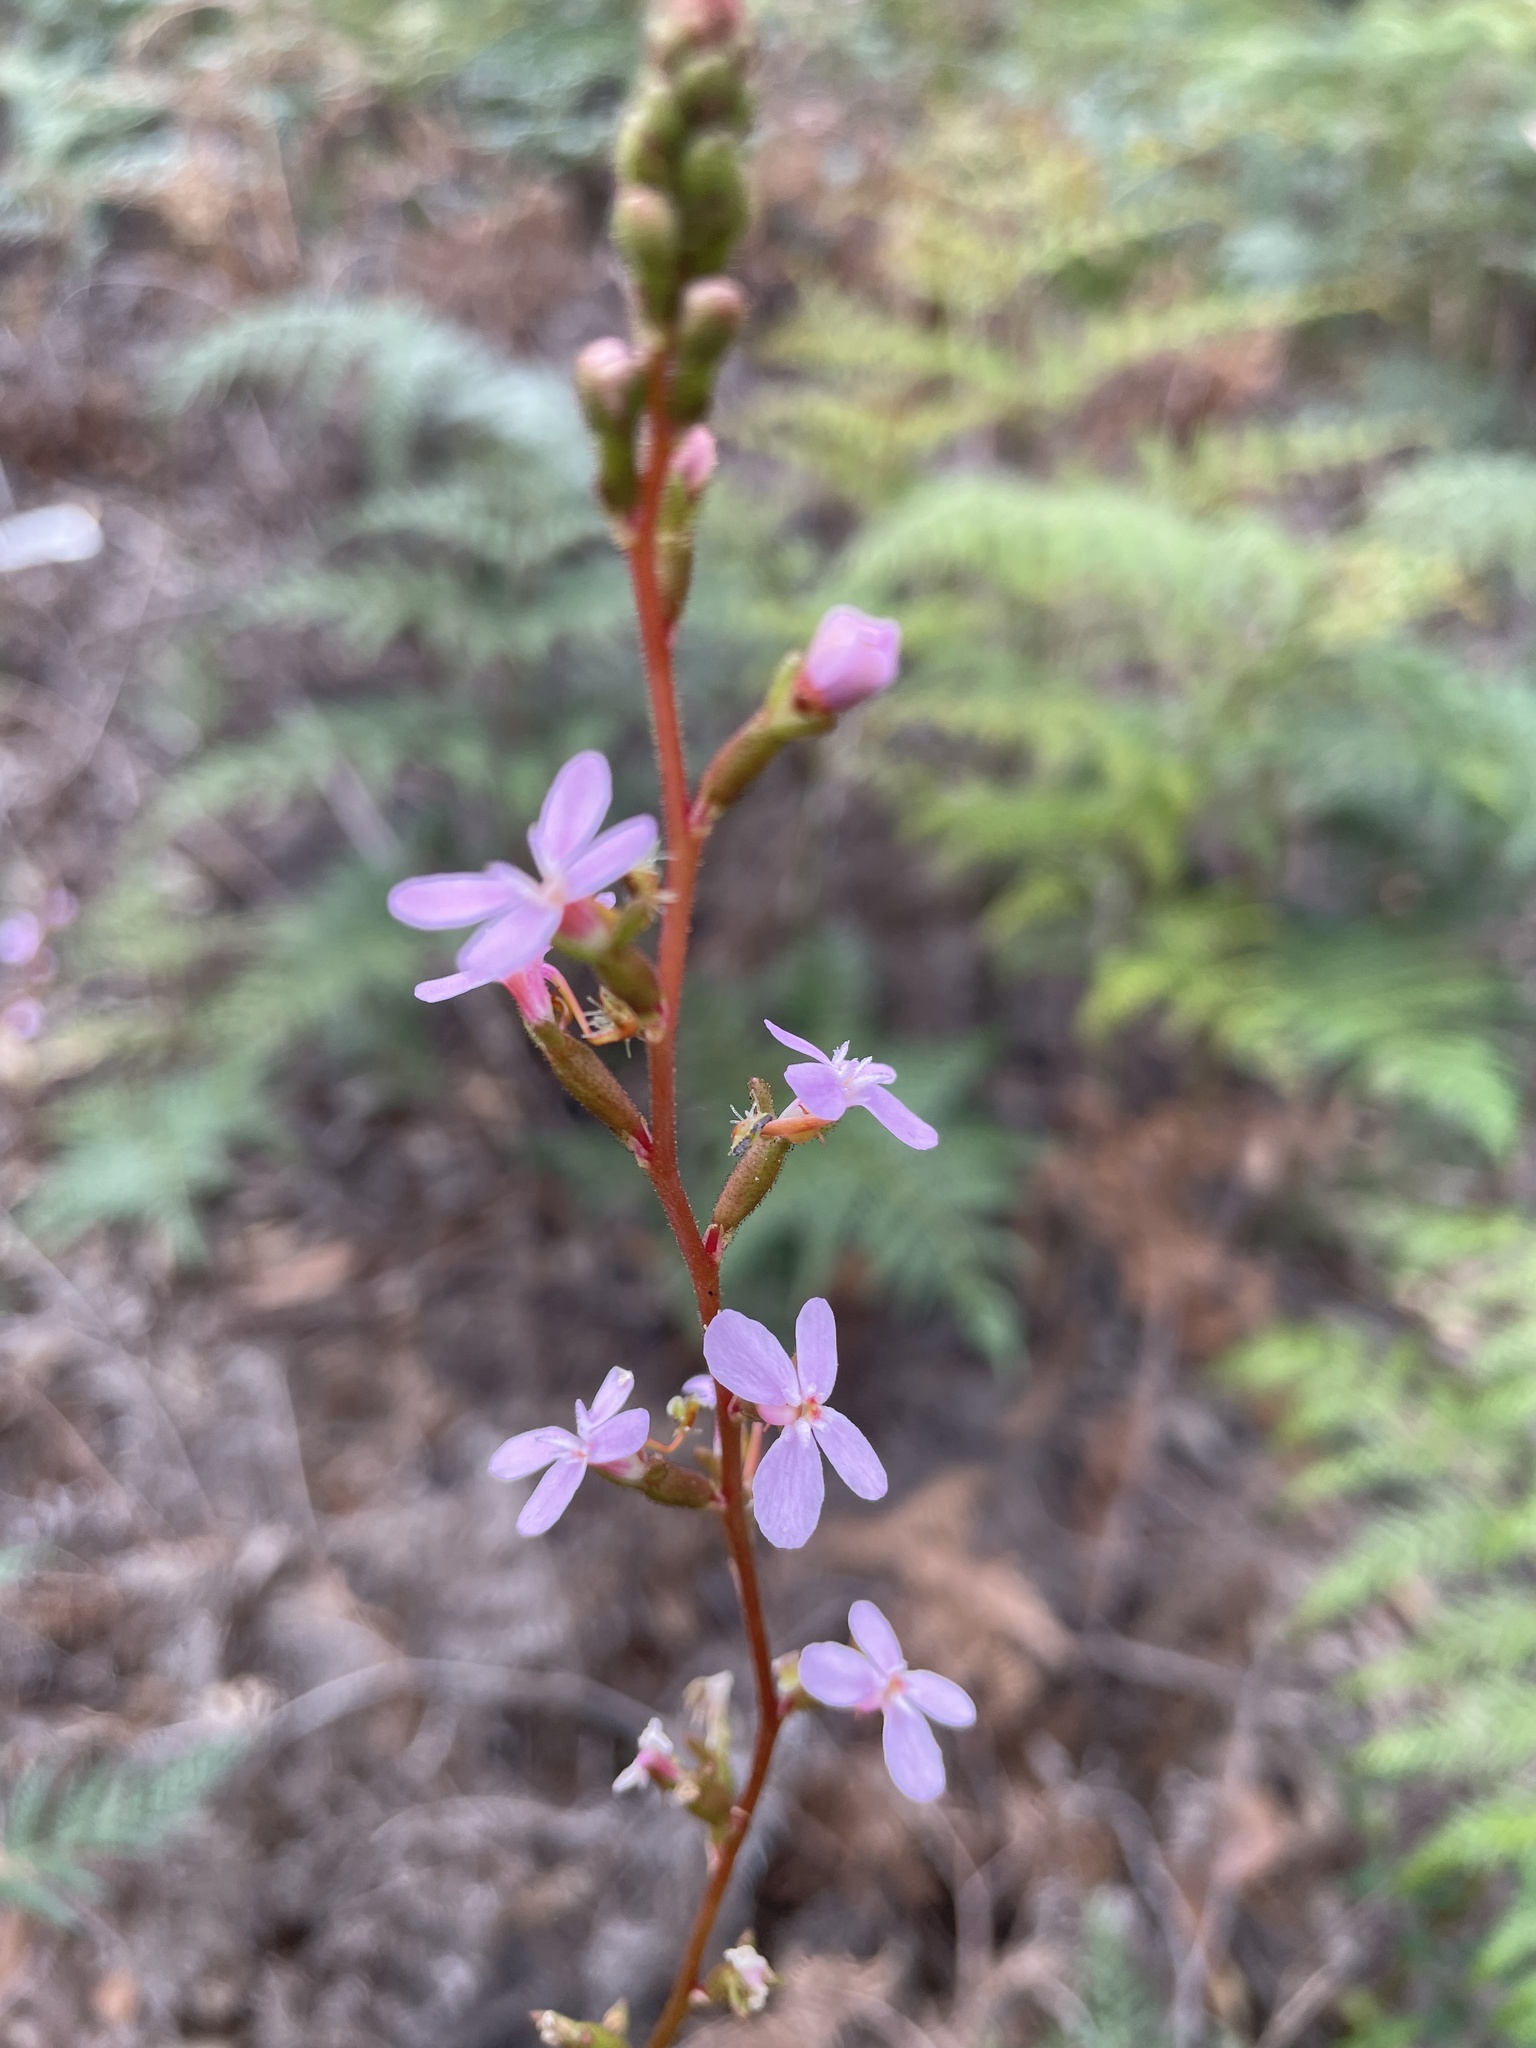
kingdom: Plantae
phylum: Tracheophyta
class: Magnoliopsida
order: Asterales
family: Stylidiaceae
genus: Stylidium
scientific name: Stylidium graminifolium
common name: Grass triggerplant
